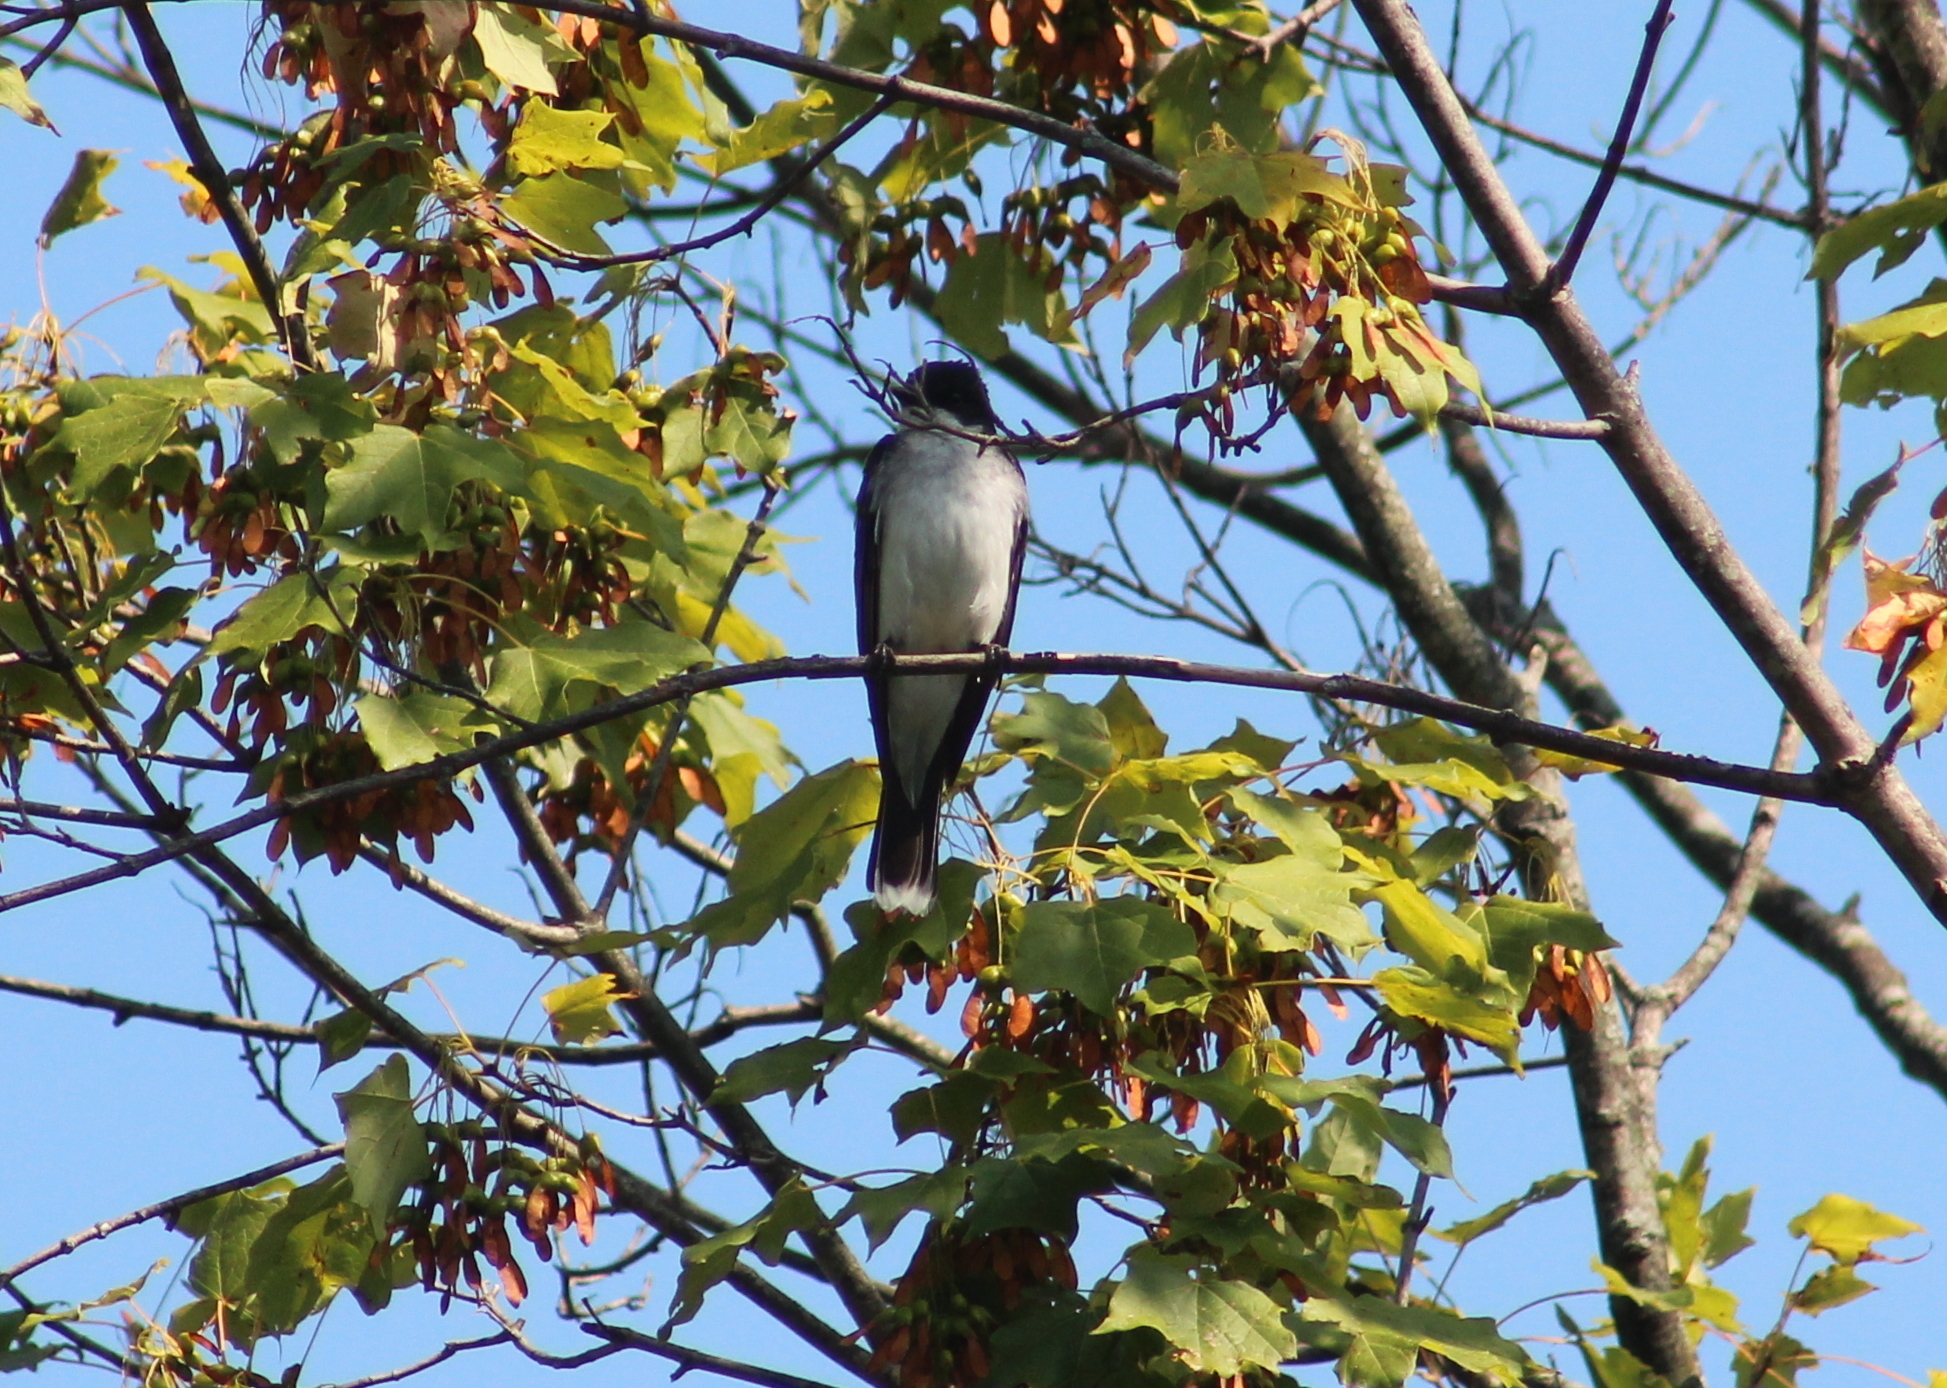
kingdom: Animalia
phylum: Chordata
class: Aves
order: Passeriformes
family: Tyrannidae
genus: Tyrannus
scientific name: Tyrannus tyrannus
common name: Eastern kingbird
